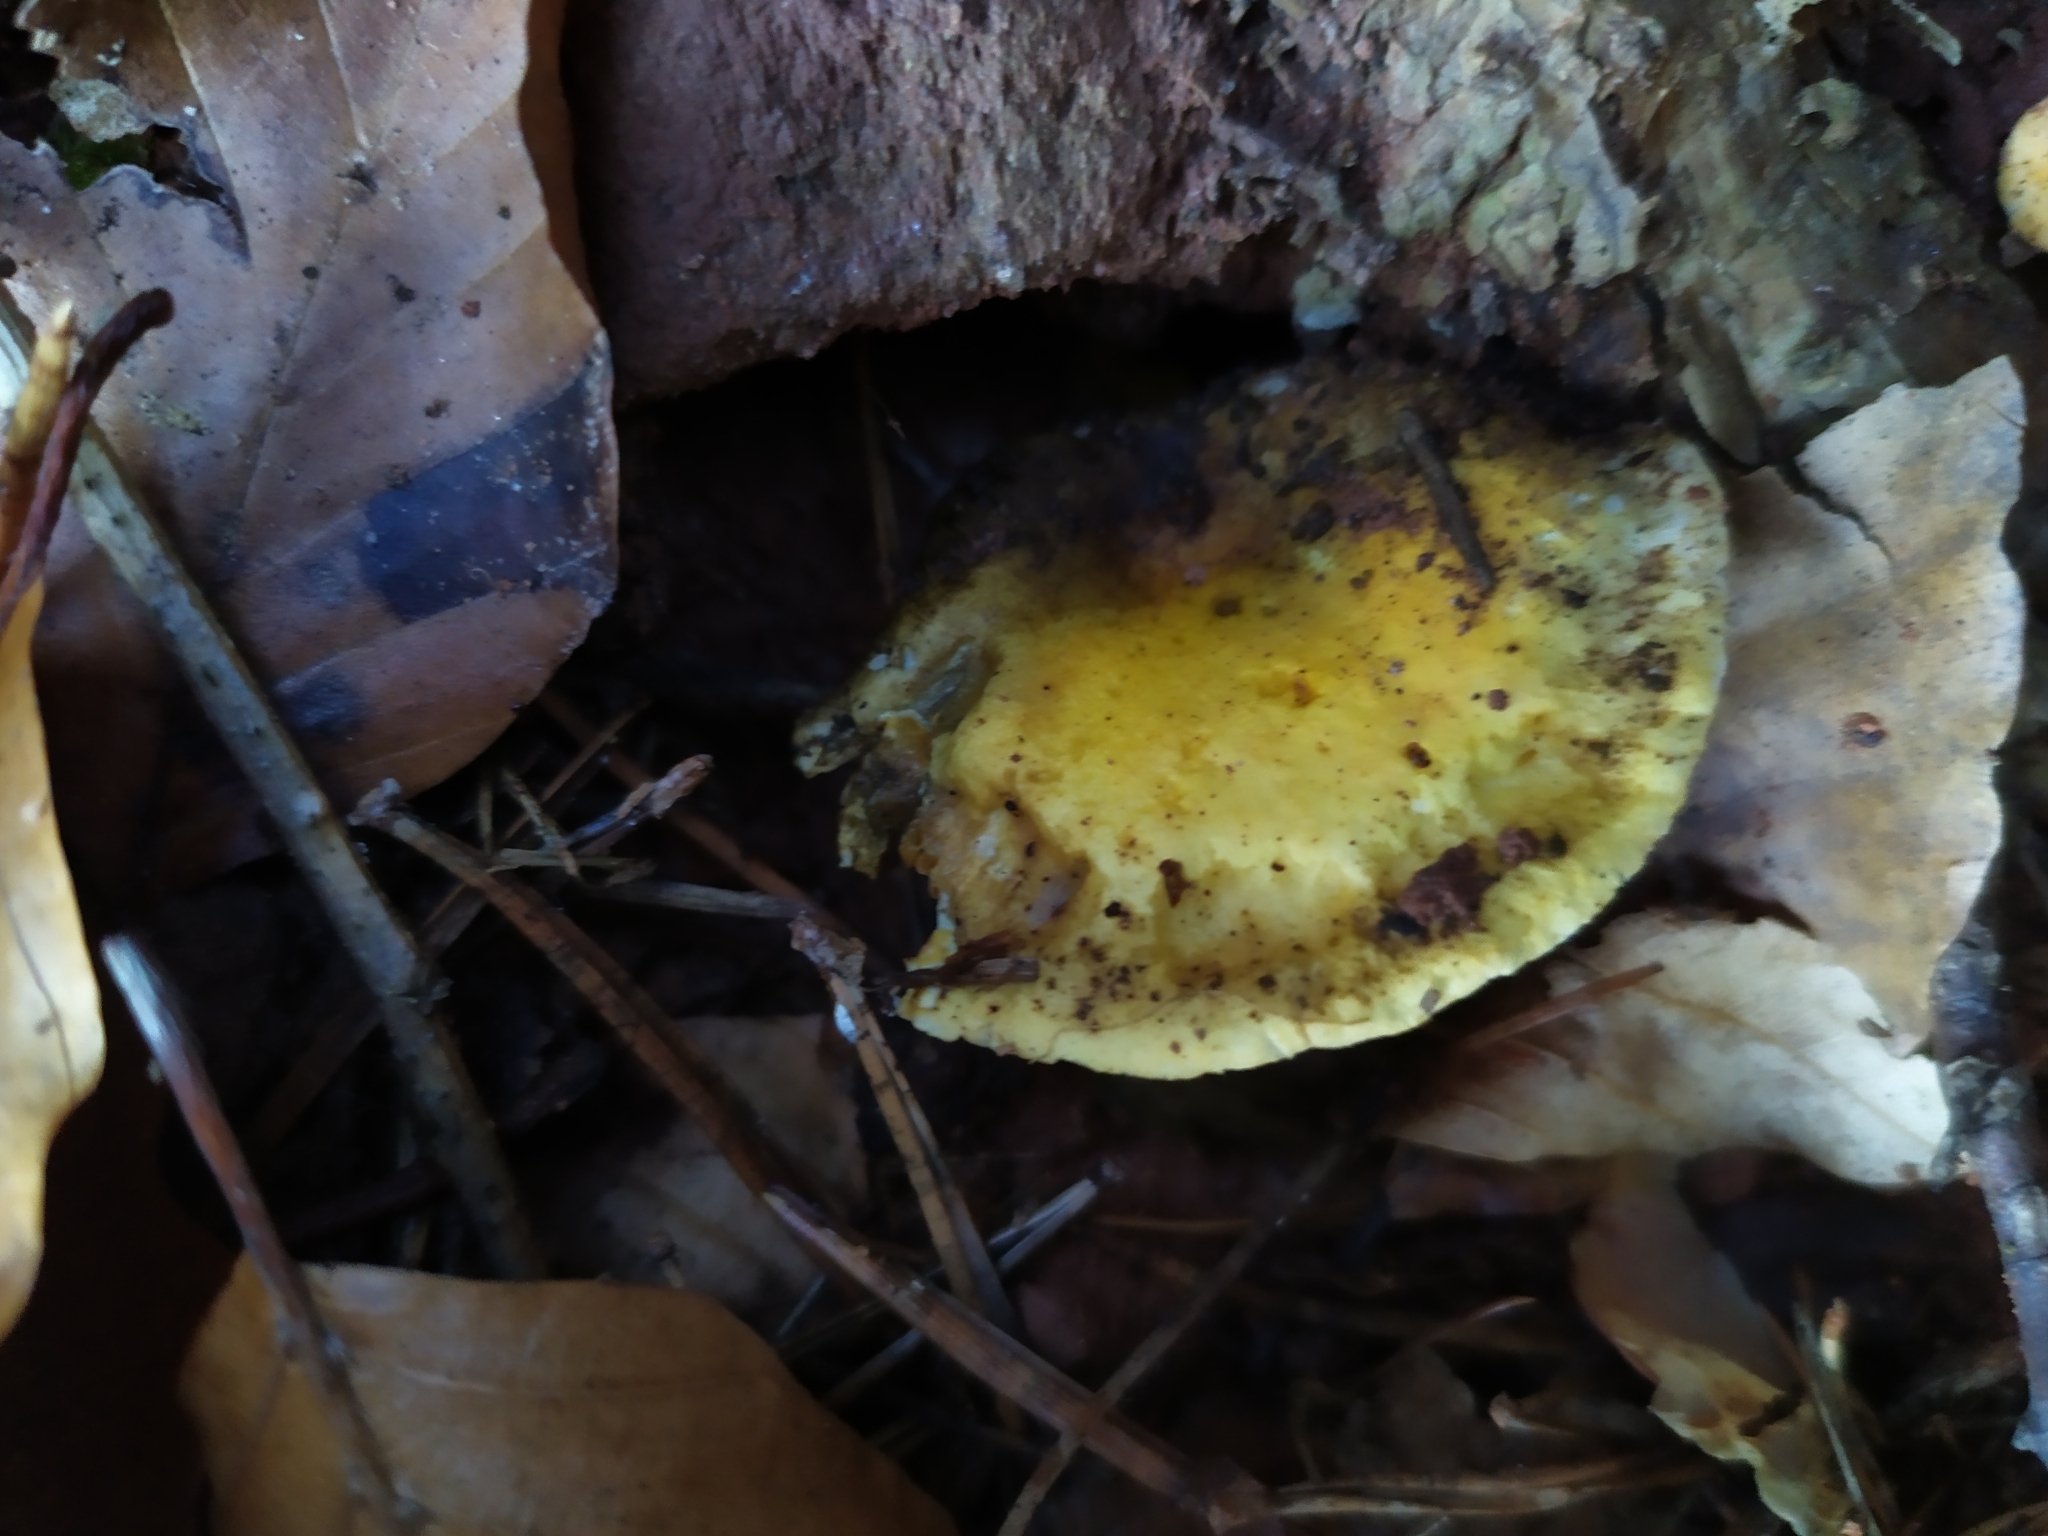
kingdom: Fungi
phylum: Basidiomycota
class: Agaricomycetes
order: Boletales
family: Hygrophoropsidaceae
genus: Hygrophoropsis
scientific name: Hygrophoropsis aurantiaca
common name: False chanterelle
